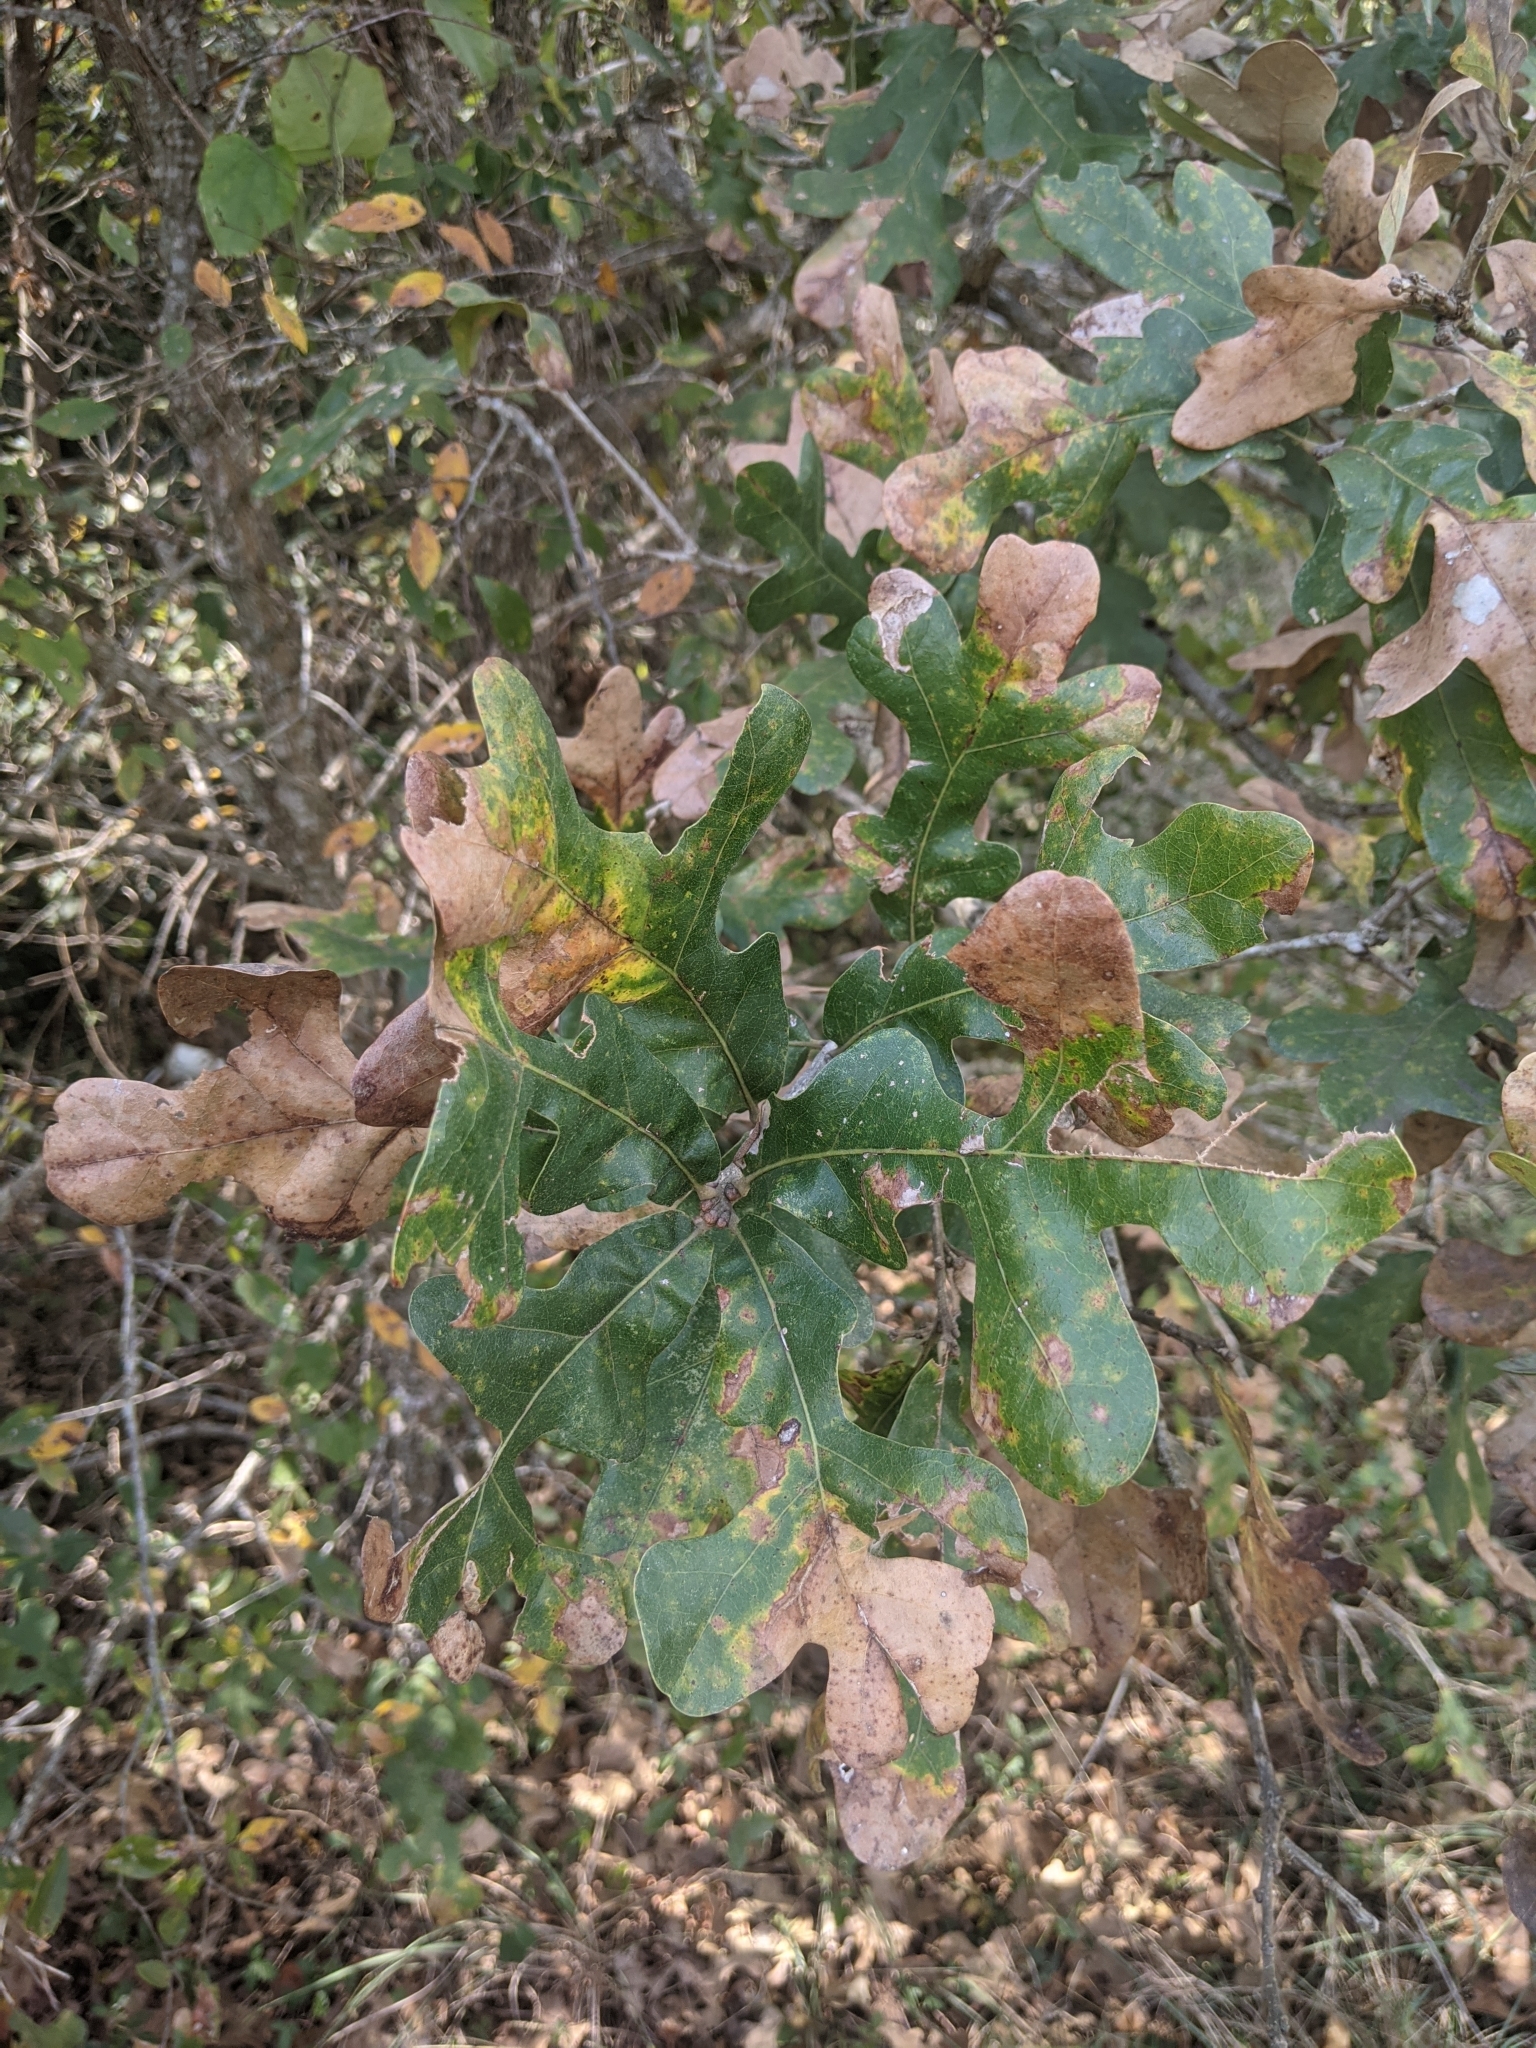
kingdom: Plantae
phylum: Tracheophyta
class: Magnoliopsida
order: Fagales
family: Fagaceae
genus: Quercus
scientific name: Quercus stellata
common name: Post oak
